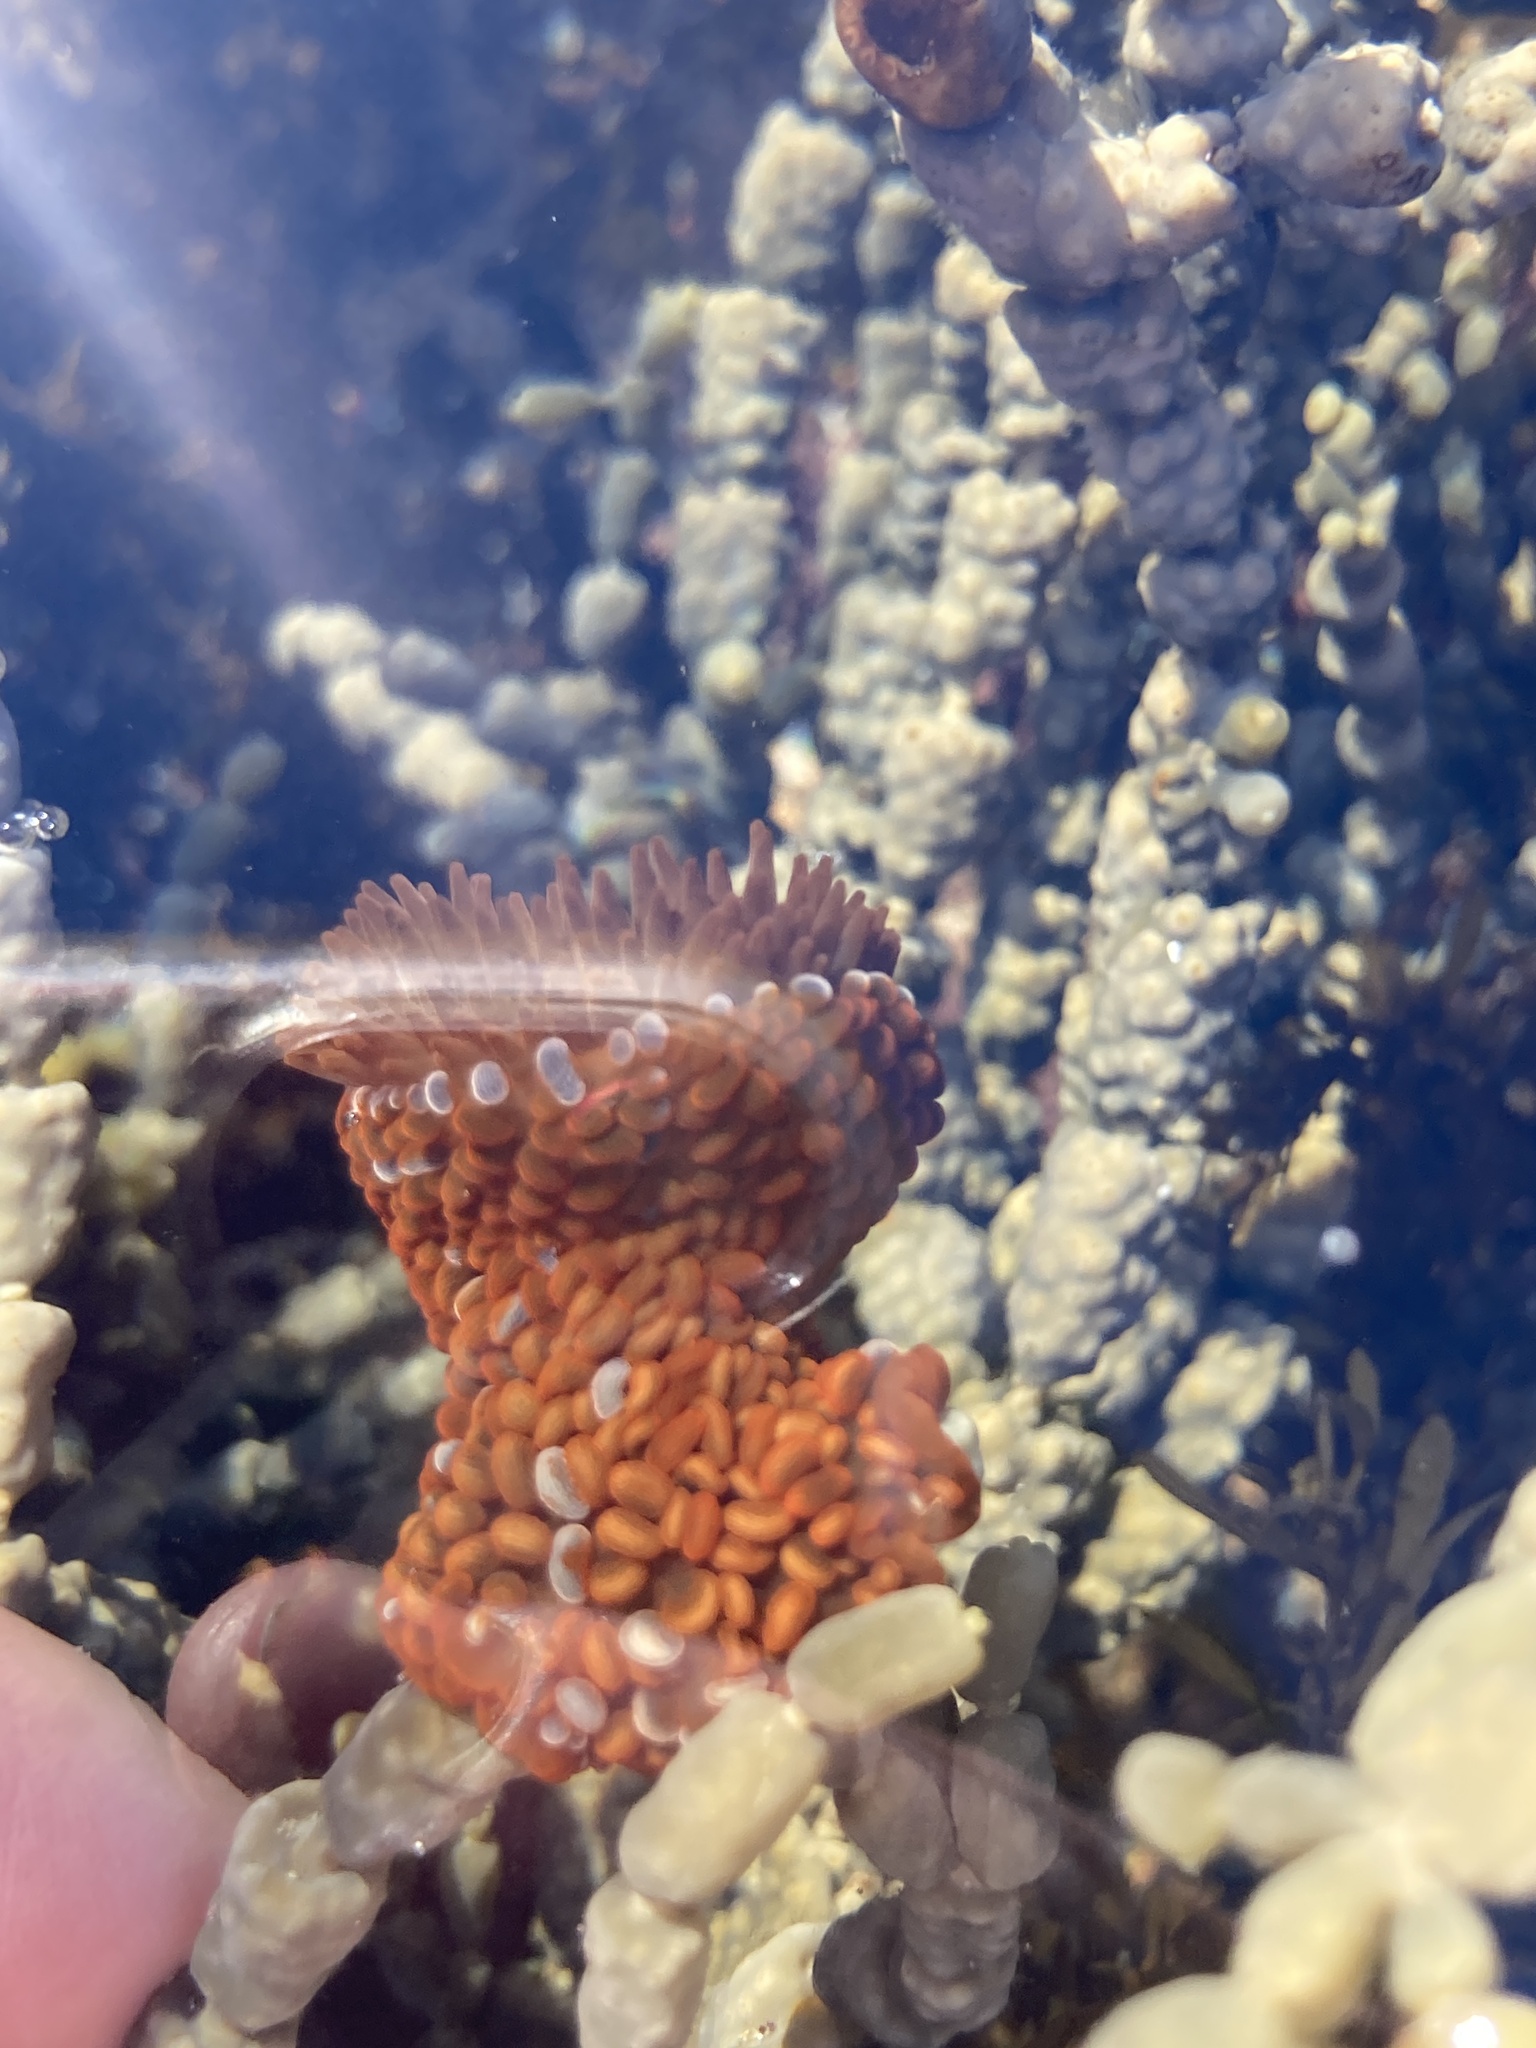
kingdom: Animalia
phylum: Cnidaria
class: Anthozoa
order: Actiniaria
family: Actiniidae
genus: Phlyctenactis
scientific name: Phlyctenactis tuberculosa
